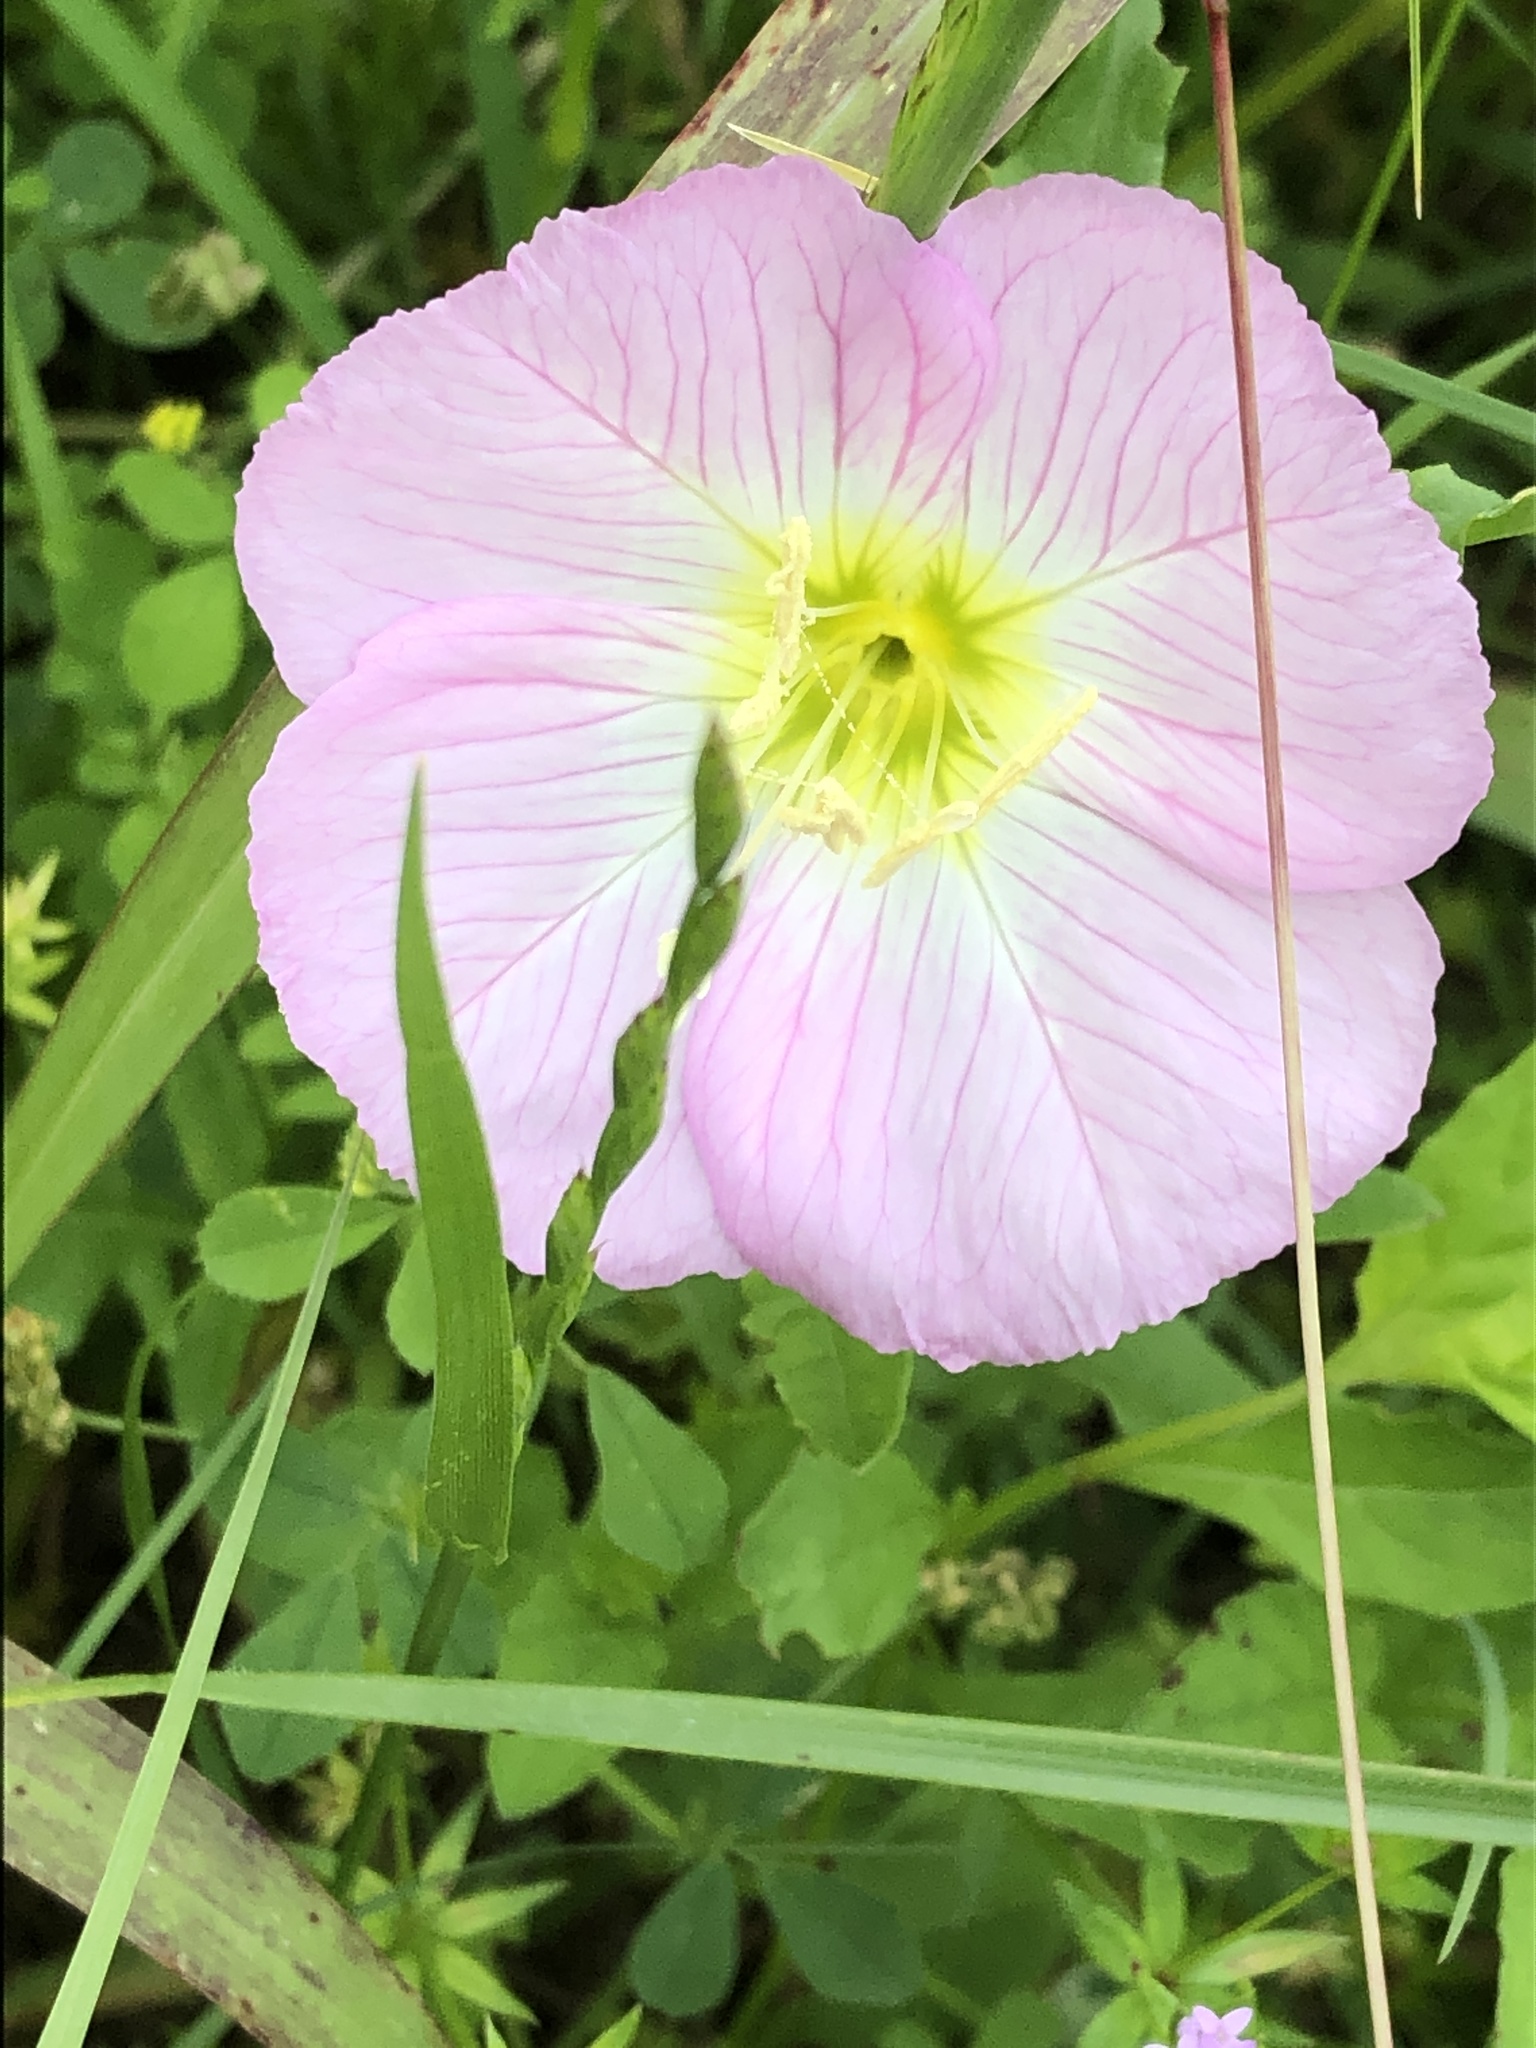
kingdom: Plantae
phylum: Tracheophyta
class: Magnoliopsida
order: Myrtales
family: Onagraceae
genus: Oenothera
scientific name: Oenothera speciosa
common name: White evening-primrose
